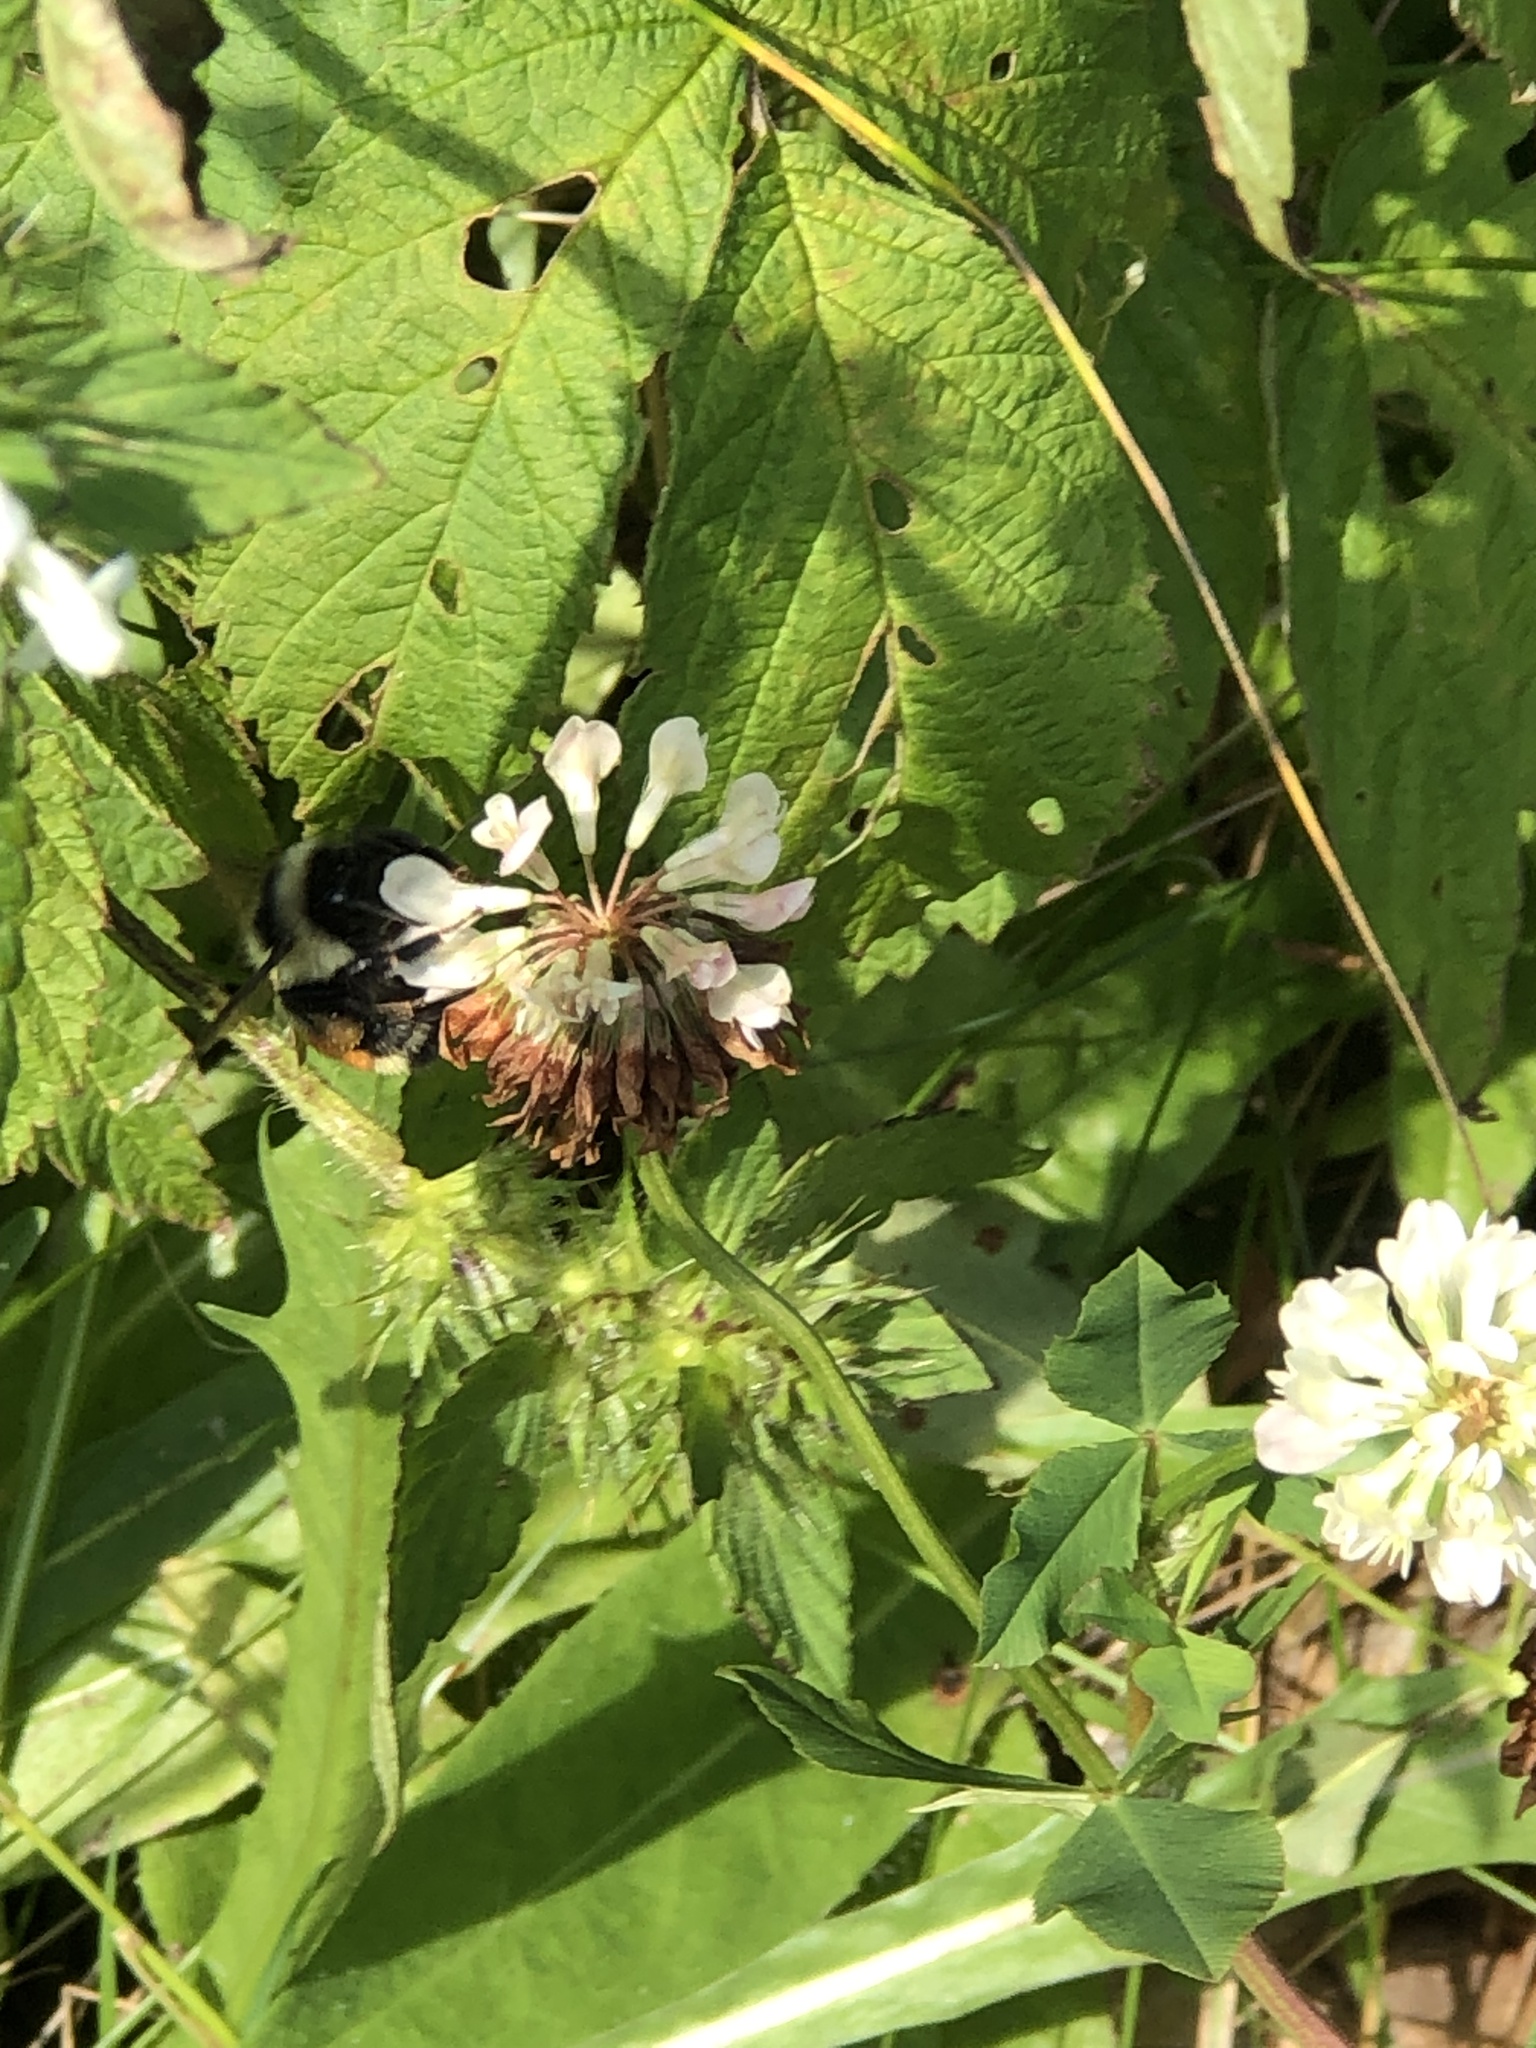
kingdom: Animalia
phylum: Arthropoda
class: Insecta
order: Hymenoptera
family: Apidae
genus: Bombus
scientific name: Bombus ternarius
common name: Tri-colored bumble bee
